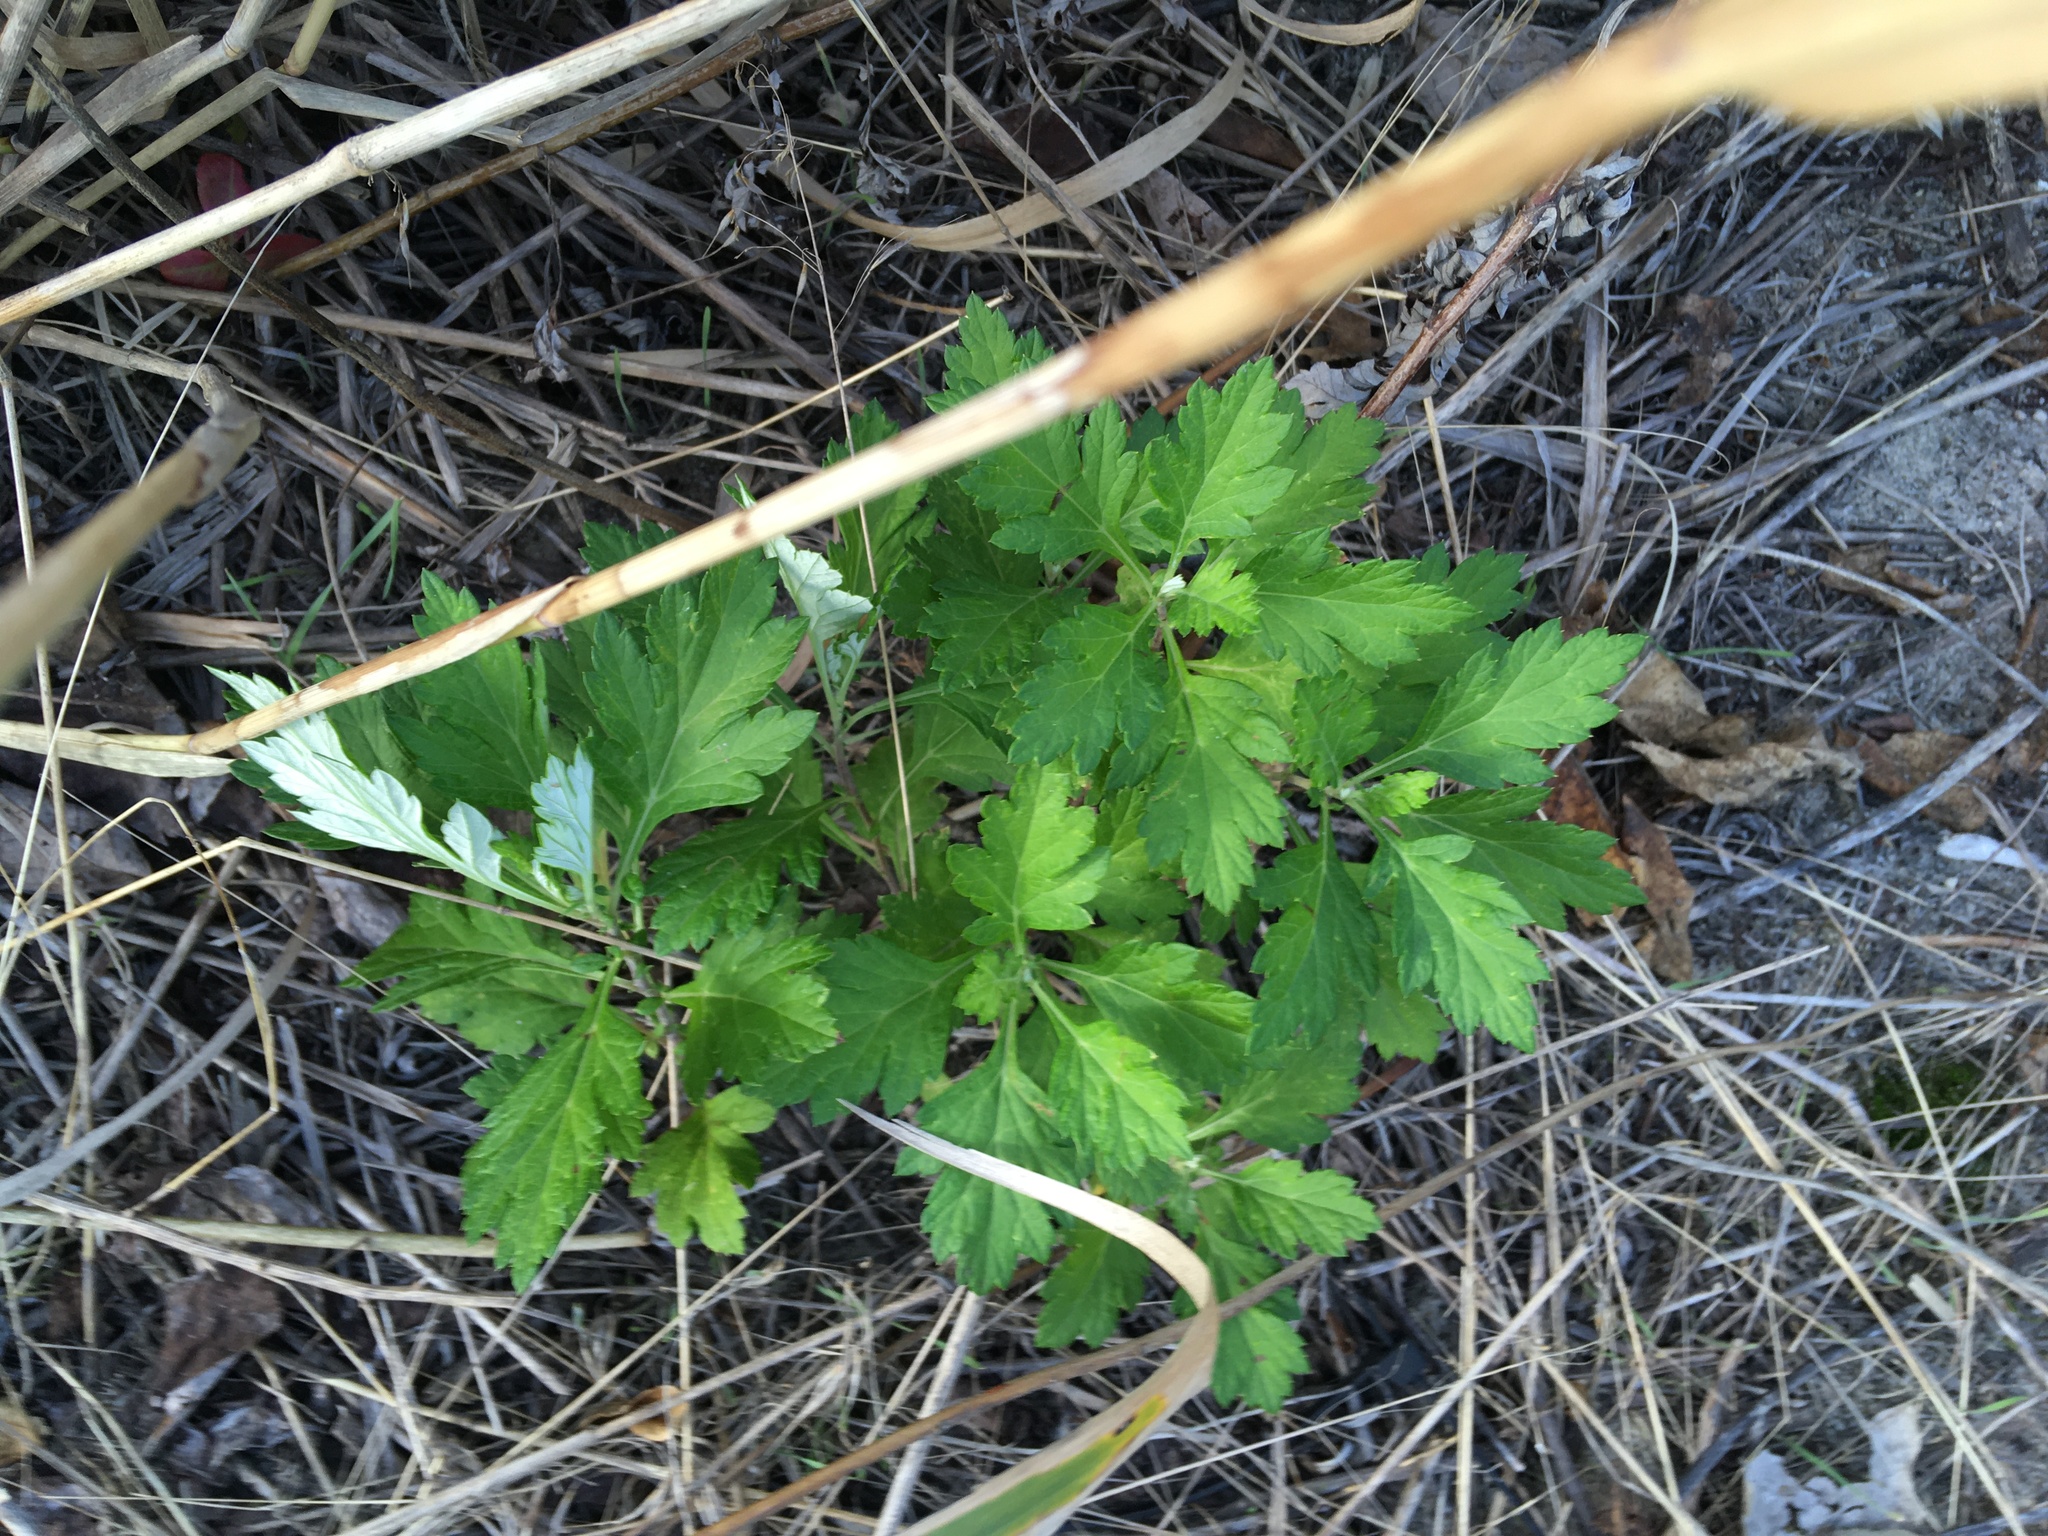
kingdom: Plantae
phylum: Tracheophyta
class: Magnoliopsida
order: Asterales
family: Asteraceae
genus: Artemisia
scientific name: Artemisia vulgaris
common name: Mugwort
